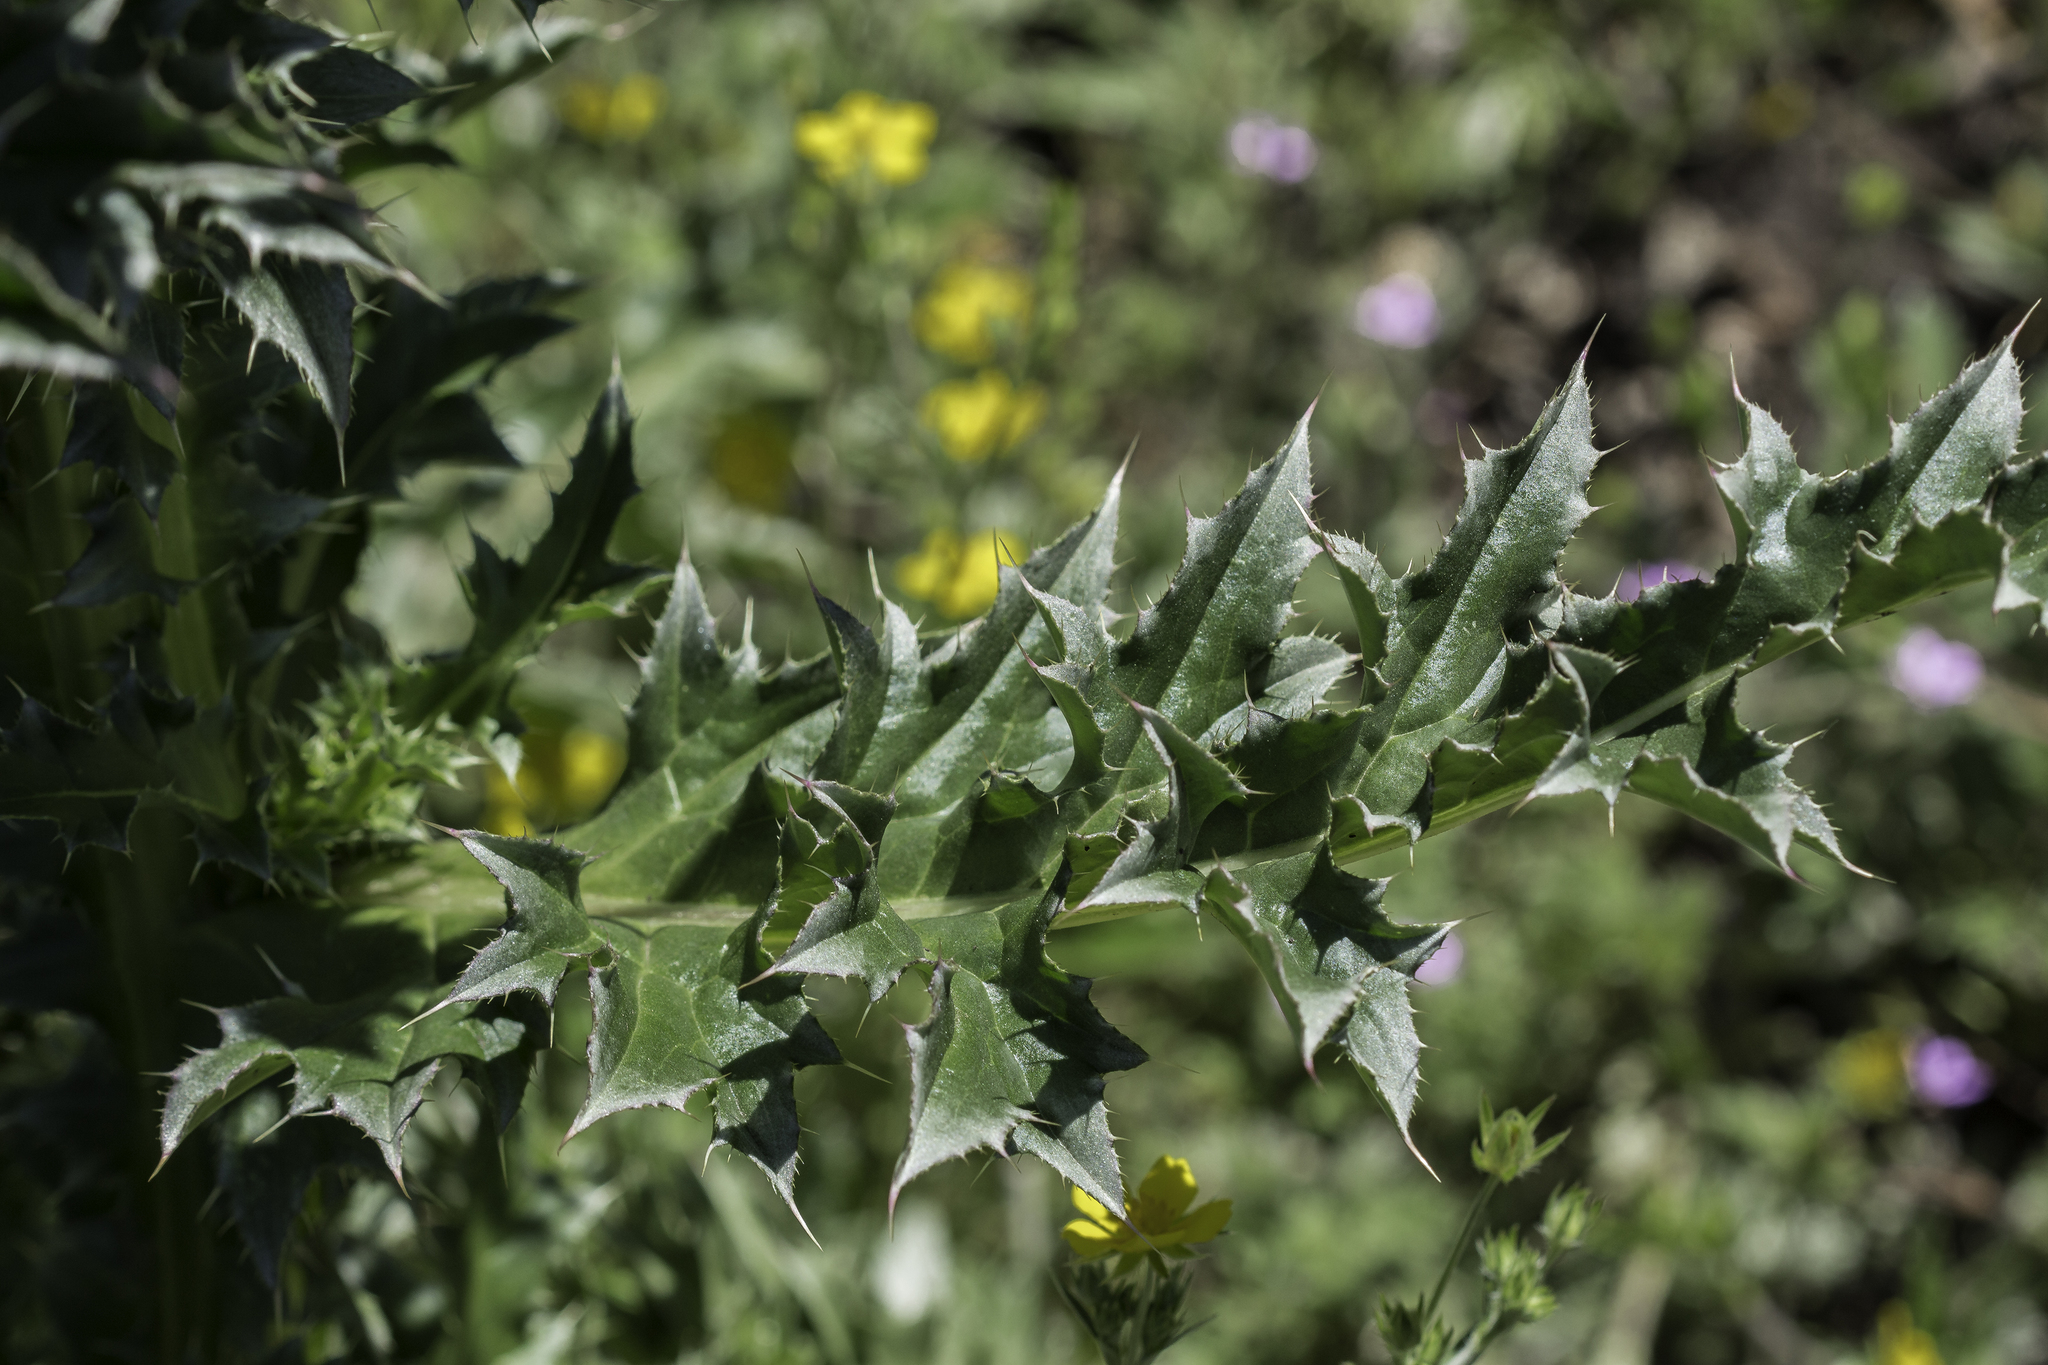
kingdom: Plantae
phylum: Tracheophyta
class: Magnoliopsida
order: Asterales
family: Asteraceae
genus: Carduus
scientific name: Carduus nutans
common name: Musk thistle
